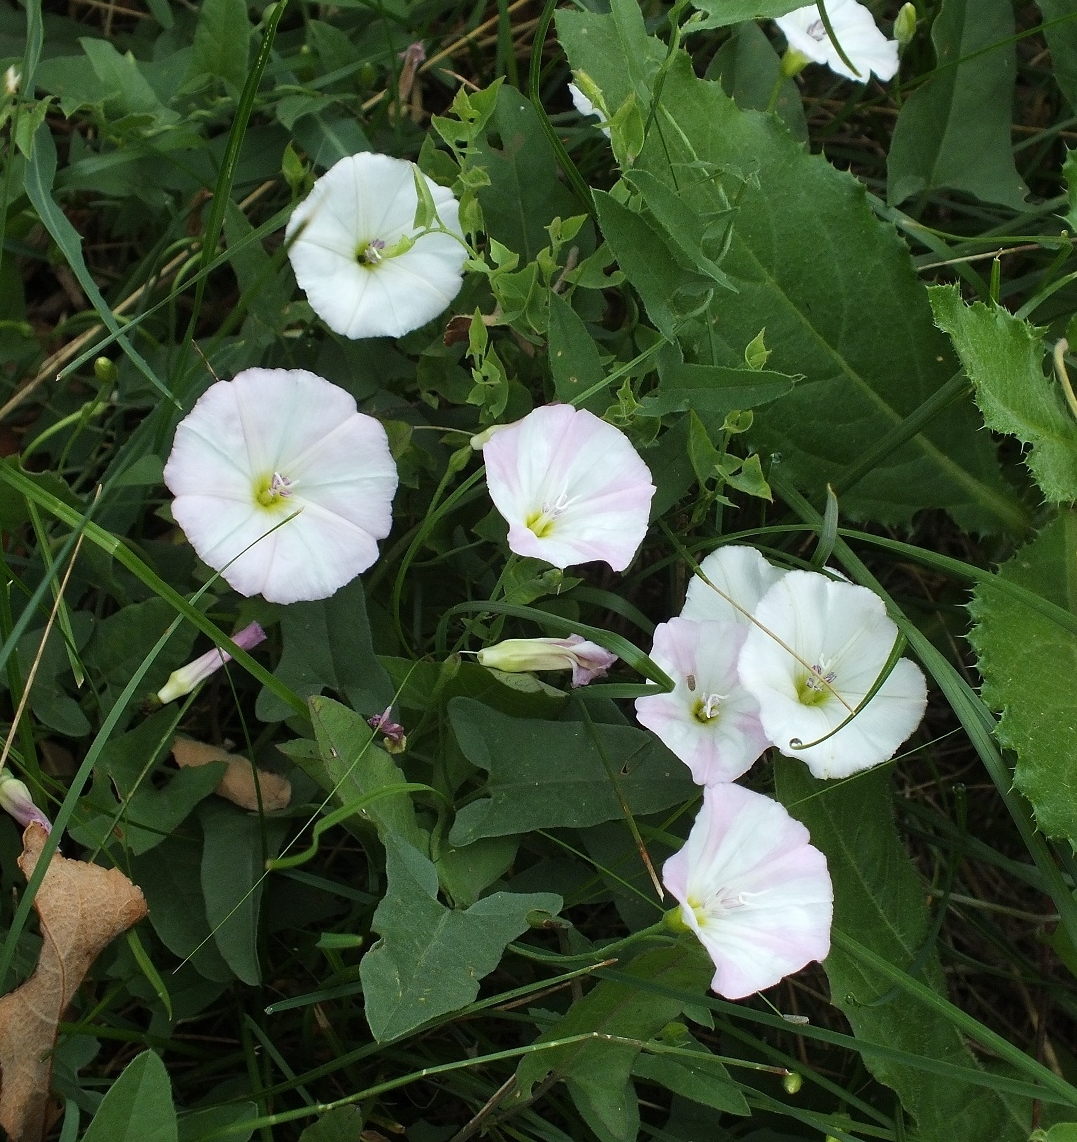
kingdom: Plantae
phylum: Tracheophyta
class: Magnoliopsida
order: Solanales
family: Convolvulaceae
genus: Convolvulus
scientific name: Convolvulus arvensis
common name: Field bindweed
